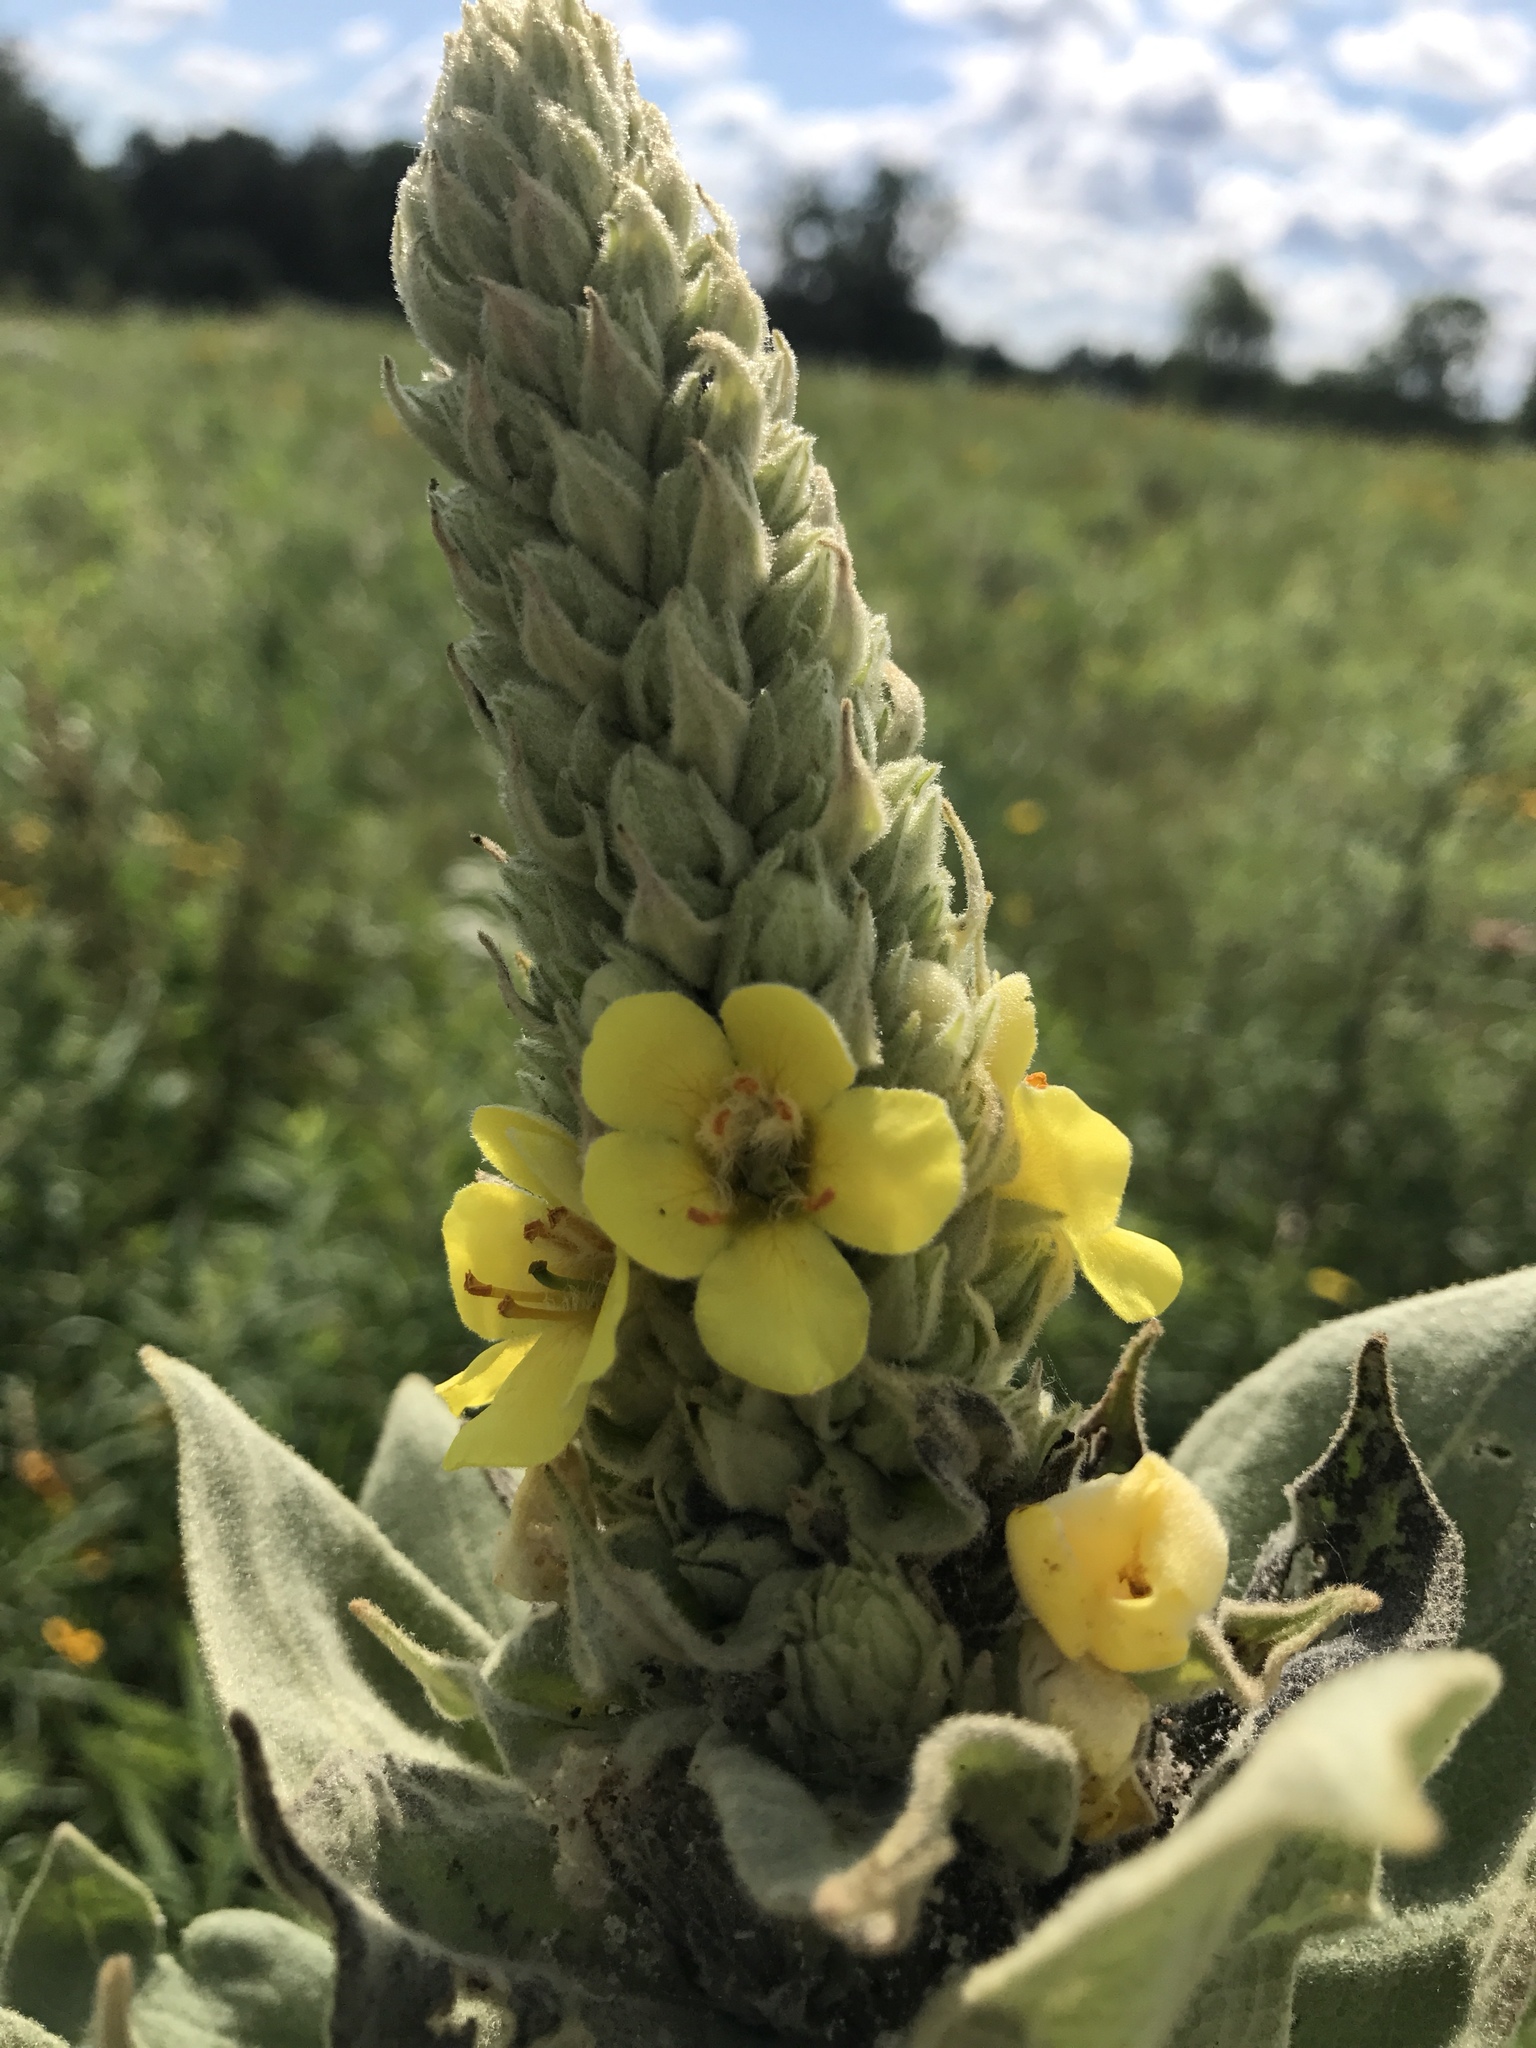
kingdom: Plantae
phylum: Tracheophyta
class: Magnoliopsida
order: Lamiales
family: Scrophulariaceae
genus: Verbascum
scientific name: Verbascum thapsus
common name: Common mullein
